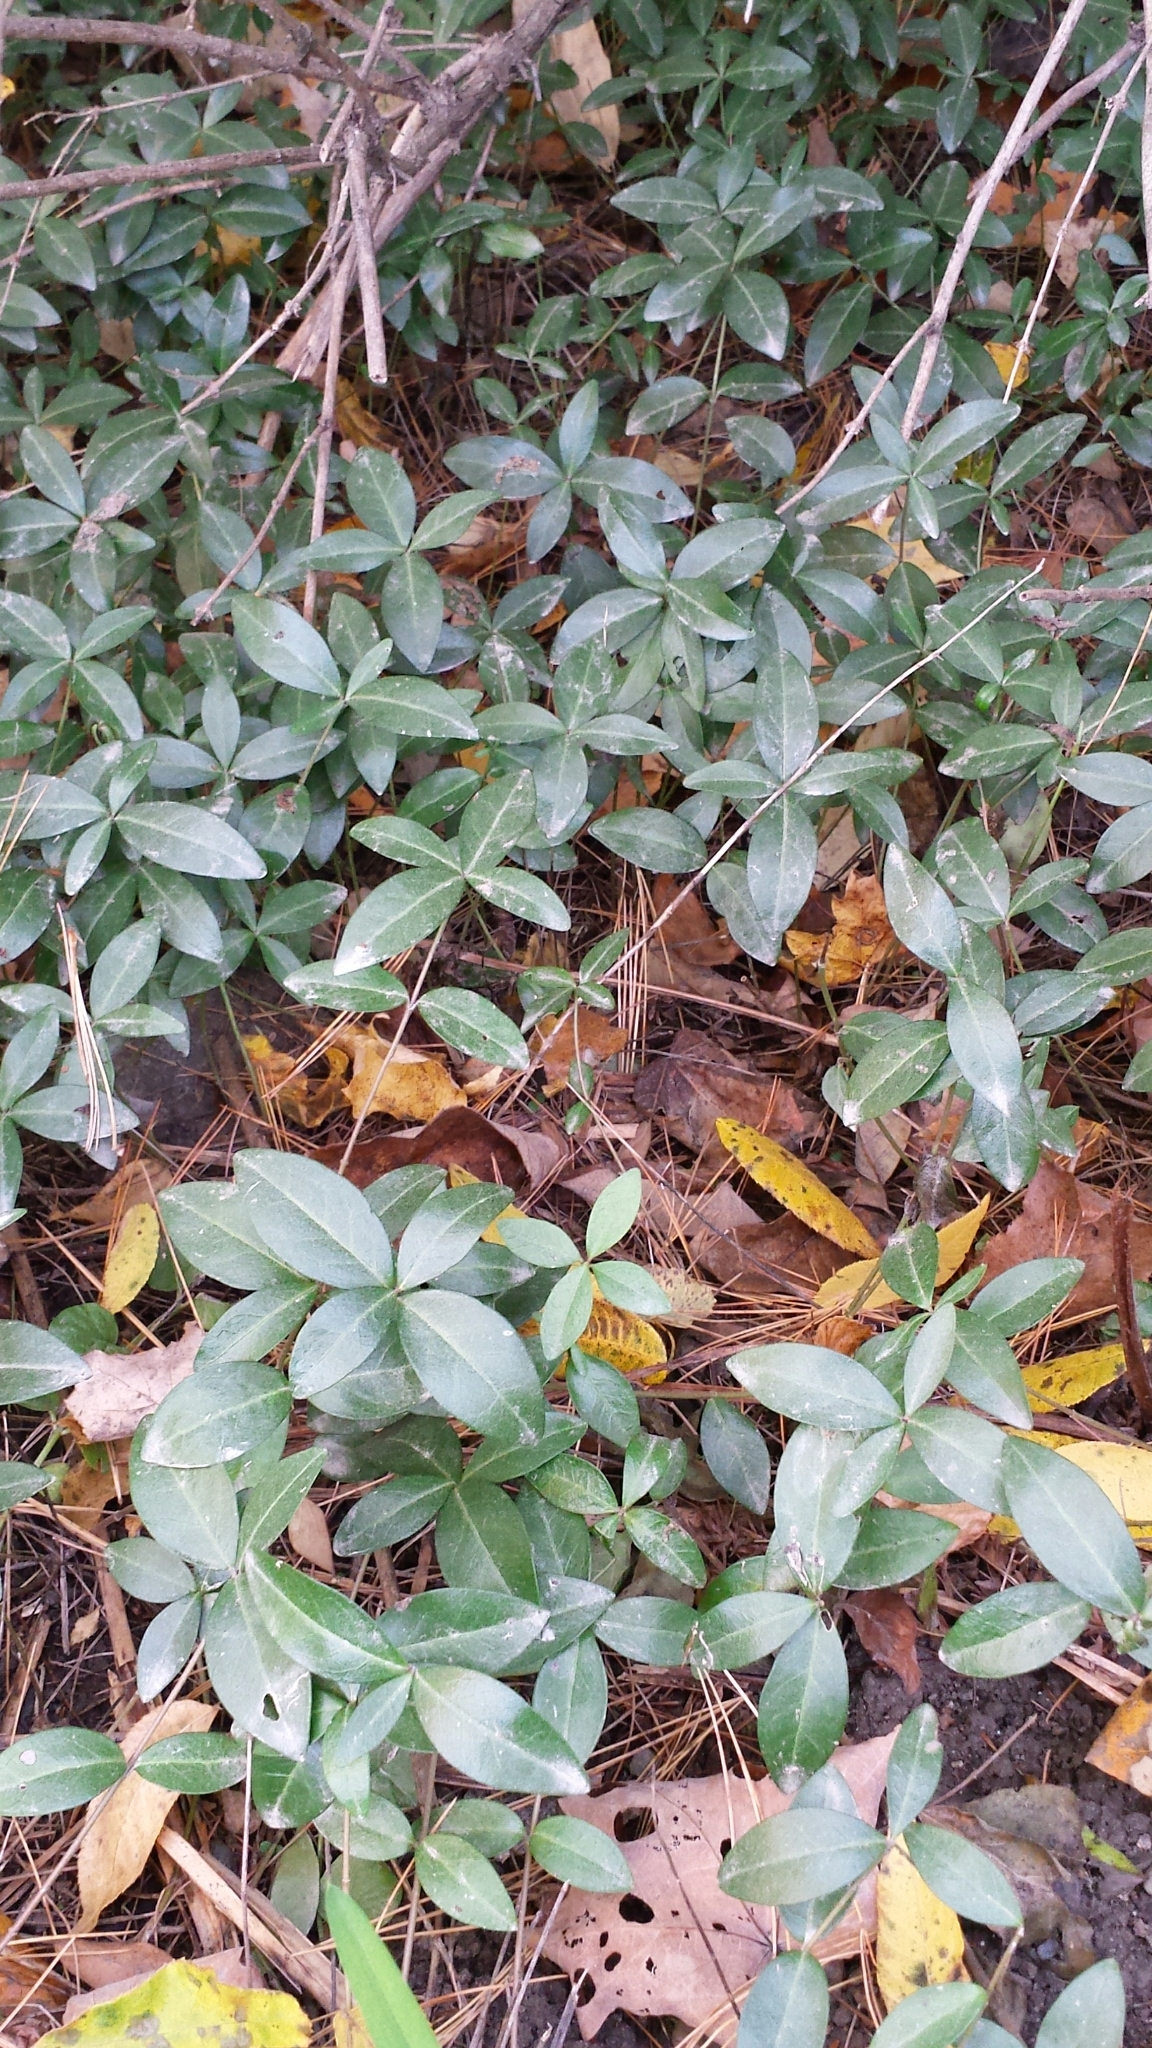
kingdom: Plantae
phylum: Tracheophyta
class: Magnoliopsida
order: Gentianales
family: Apocynaceae
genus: Vinca
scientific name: Vinca minor
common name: Lesser periwinkle
